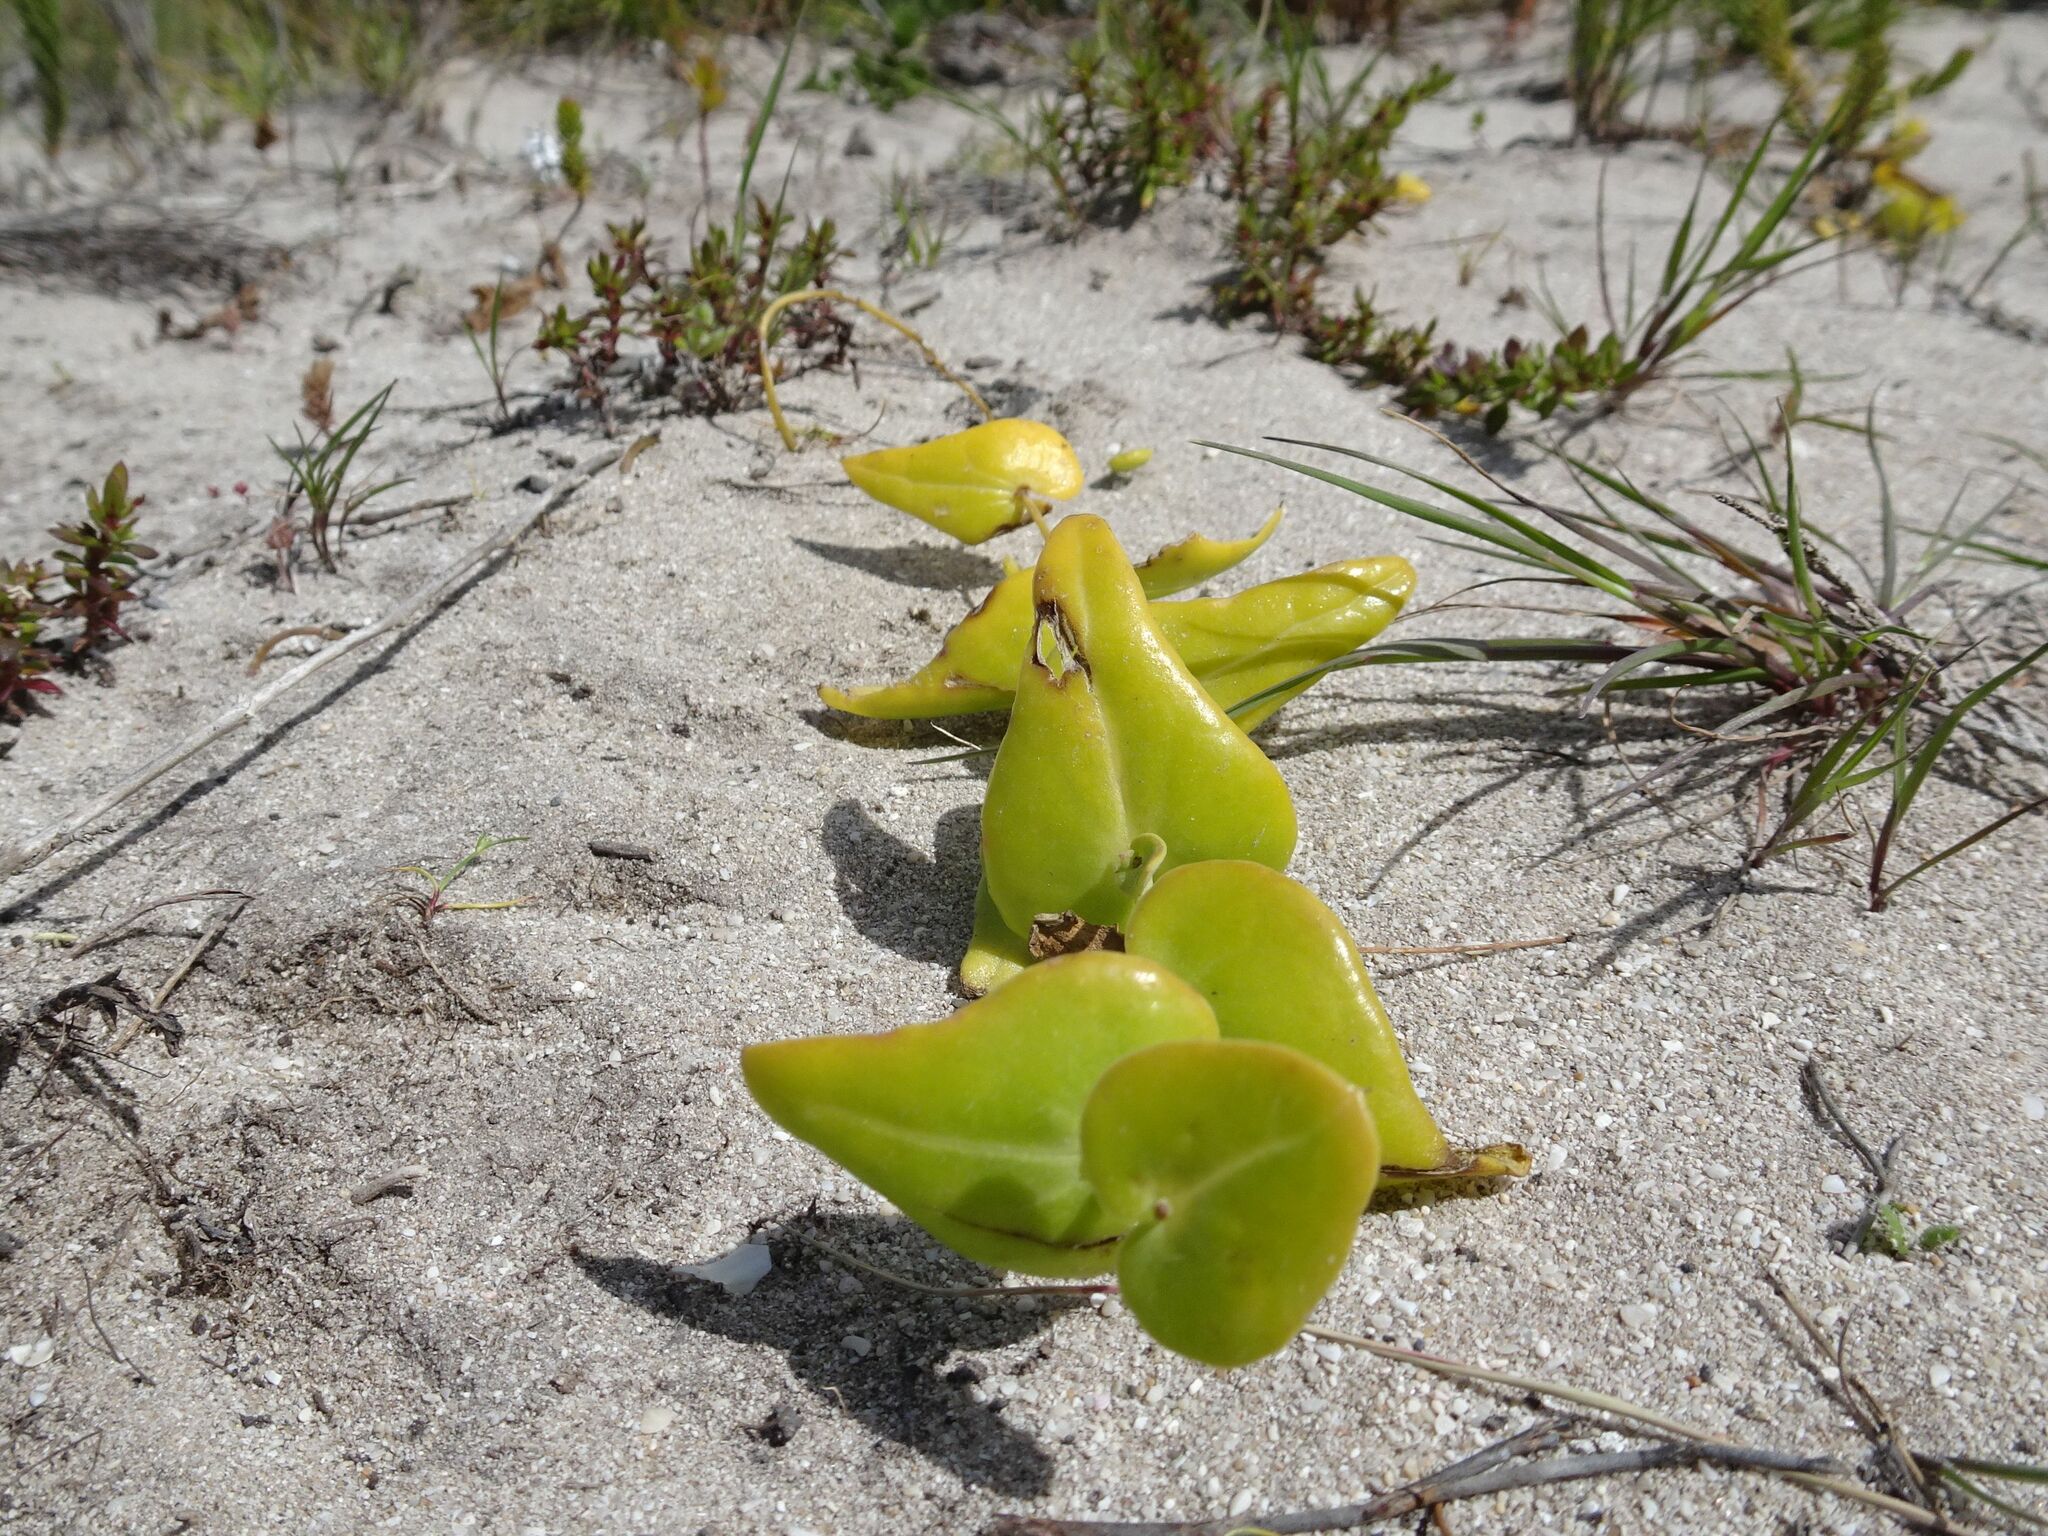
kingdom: Plantae
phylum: Tracheophyta
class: Magnoliopsida
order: Asterales
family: Asteraceae
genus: Othonna
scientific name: Othonna undulosa
